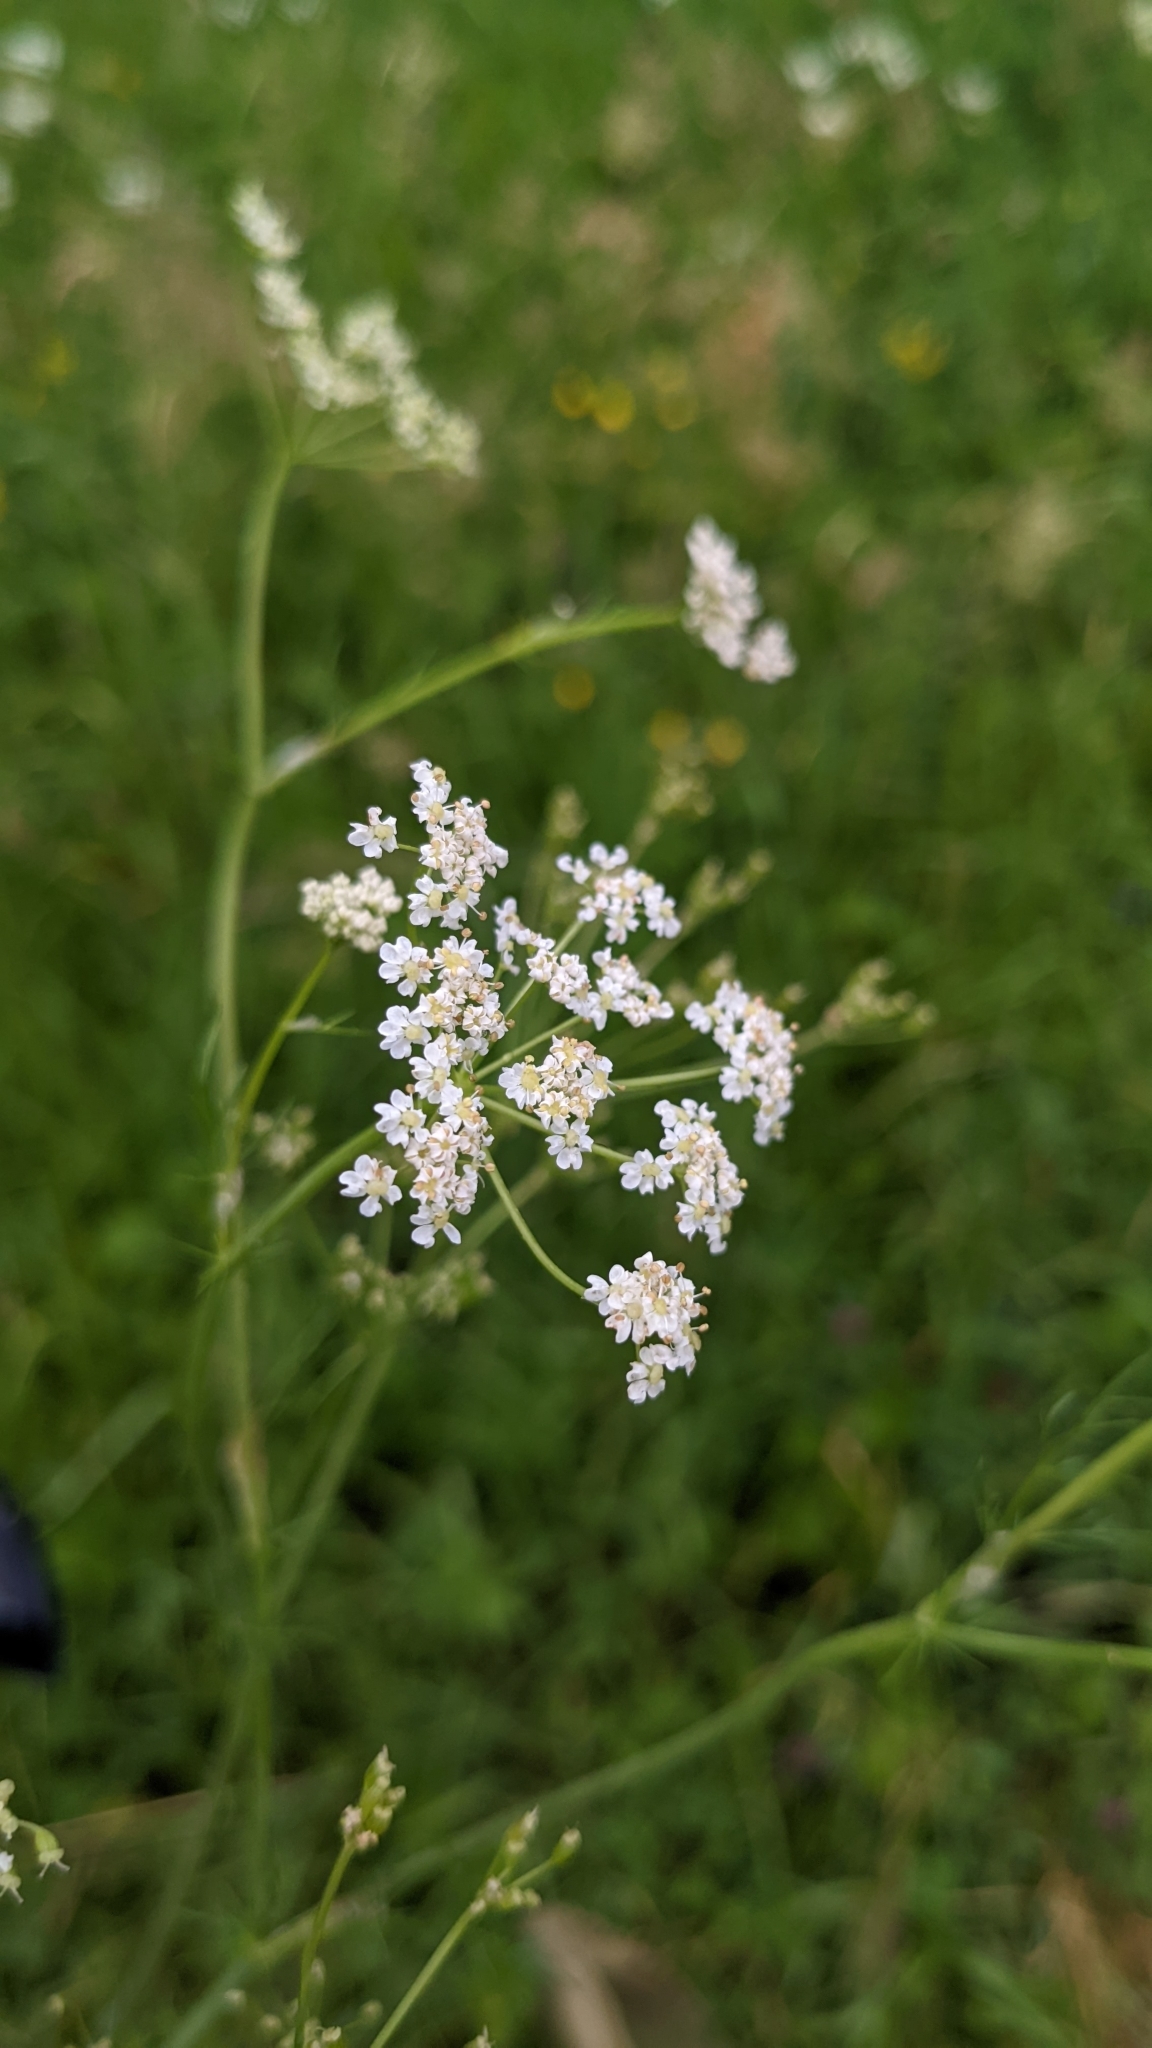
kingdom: Plantae
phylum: Tracheophyta
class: Magnoliopsida
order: Apiales
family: Apiaceae
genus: Carum
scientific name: Carum carvi
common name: Caraway
